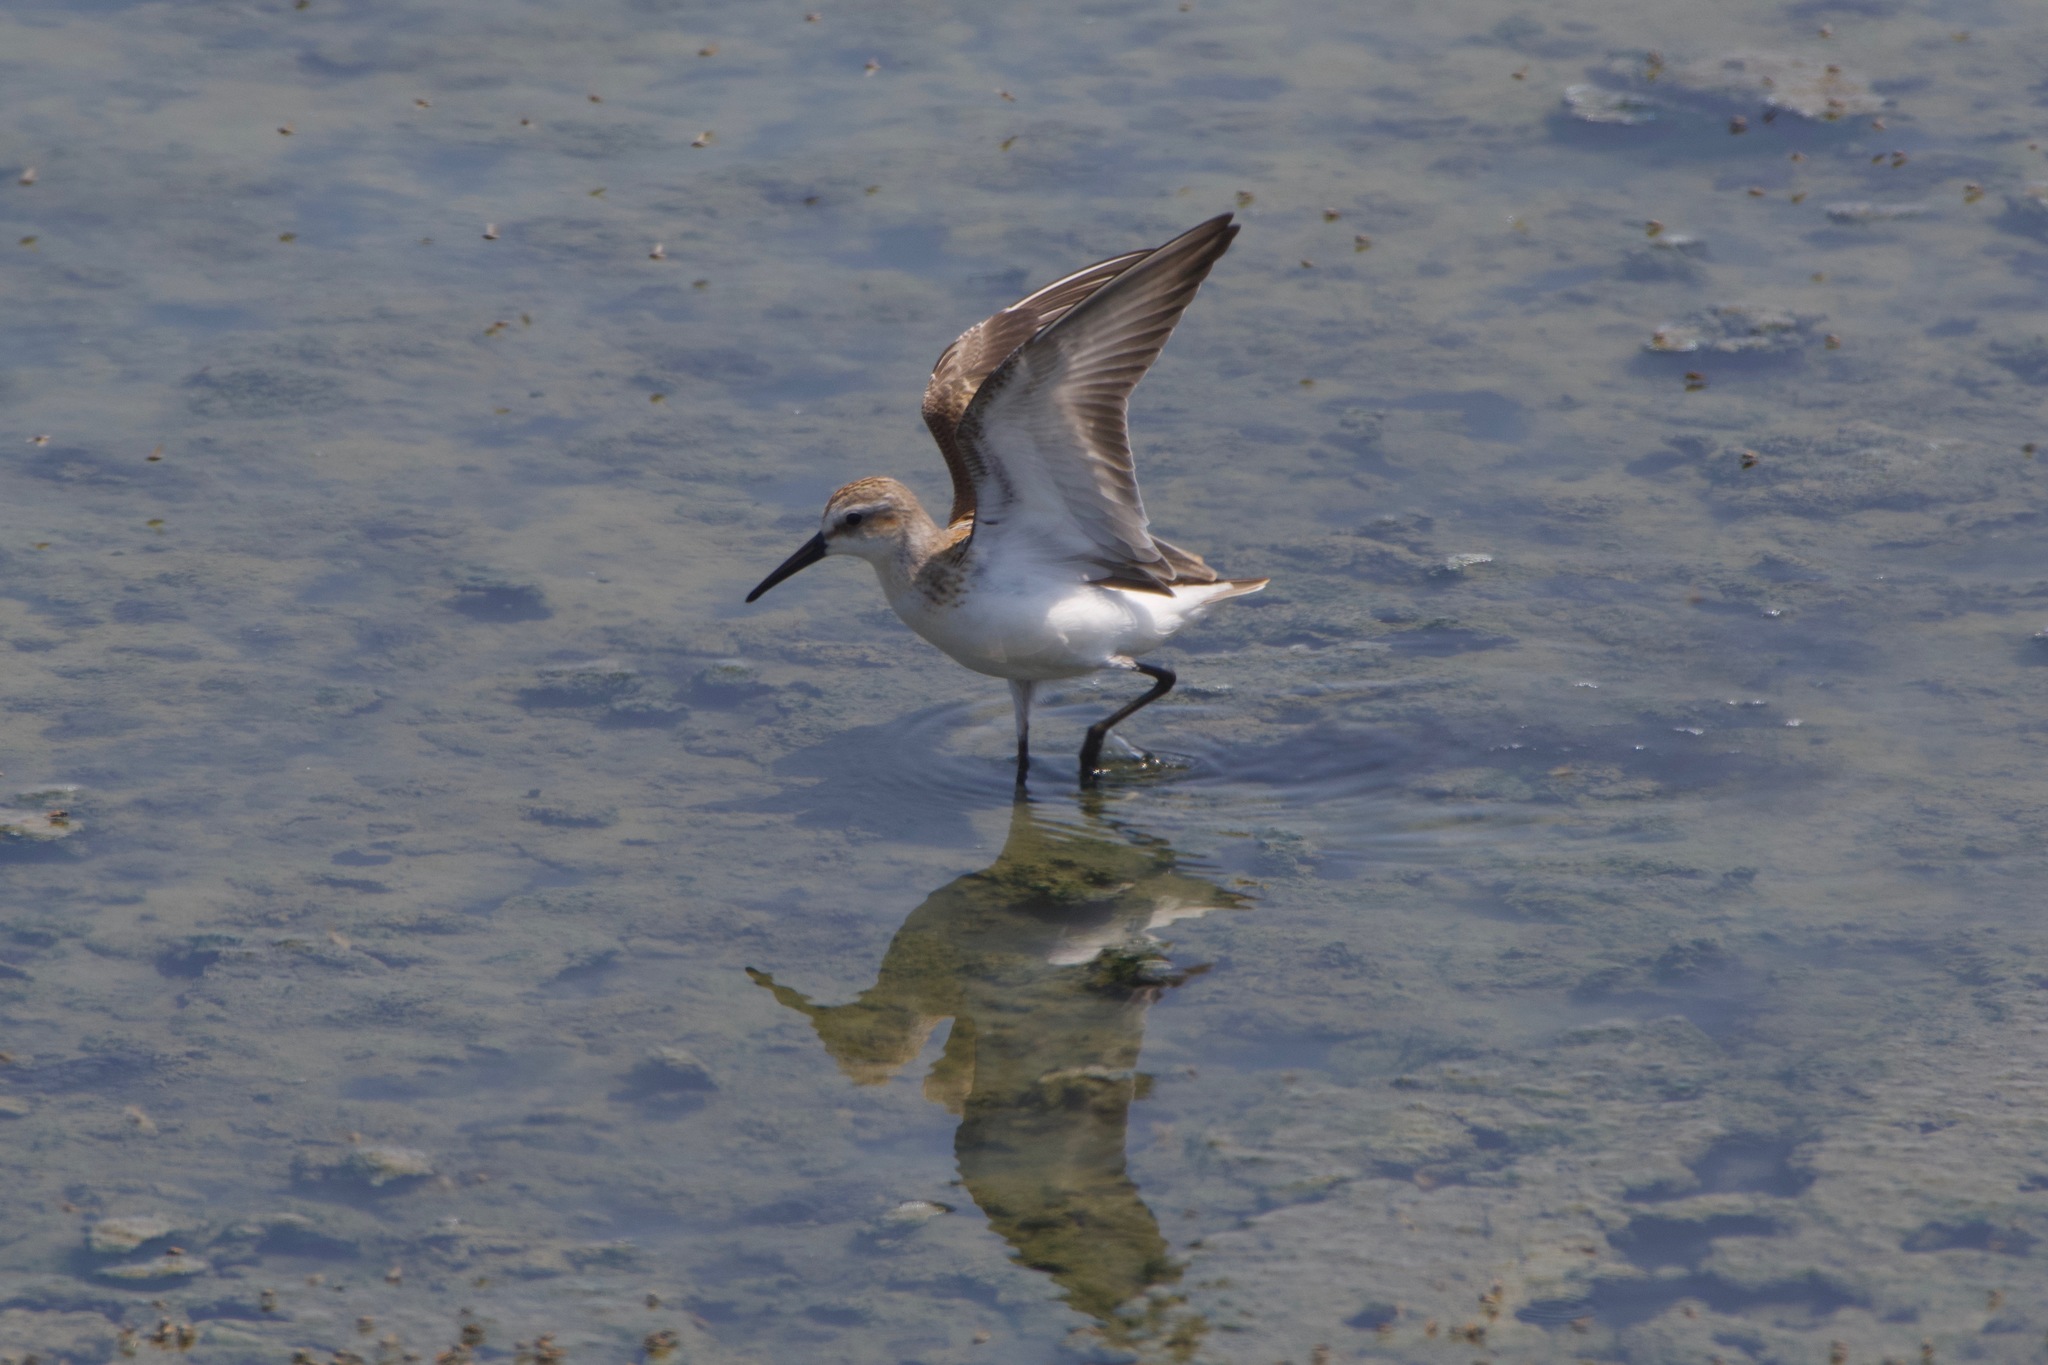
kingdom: Animalia
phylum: Chordata
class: Aves
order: Charadriiformes
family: Scolopacidae
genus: Calidris
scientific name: Calidris mauri
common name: Western sandpiper
